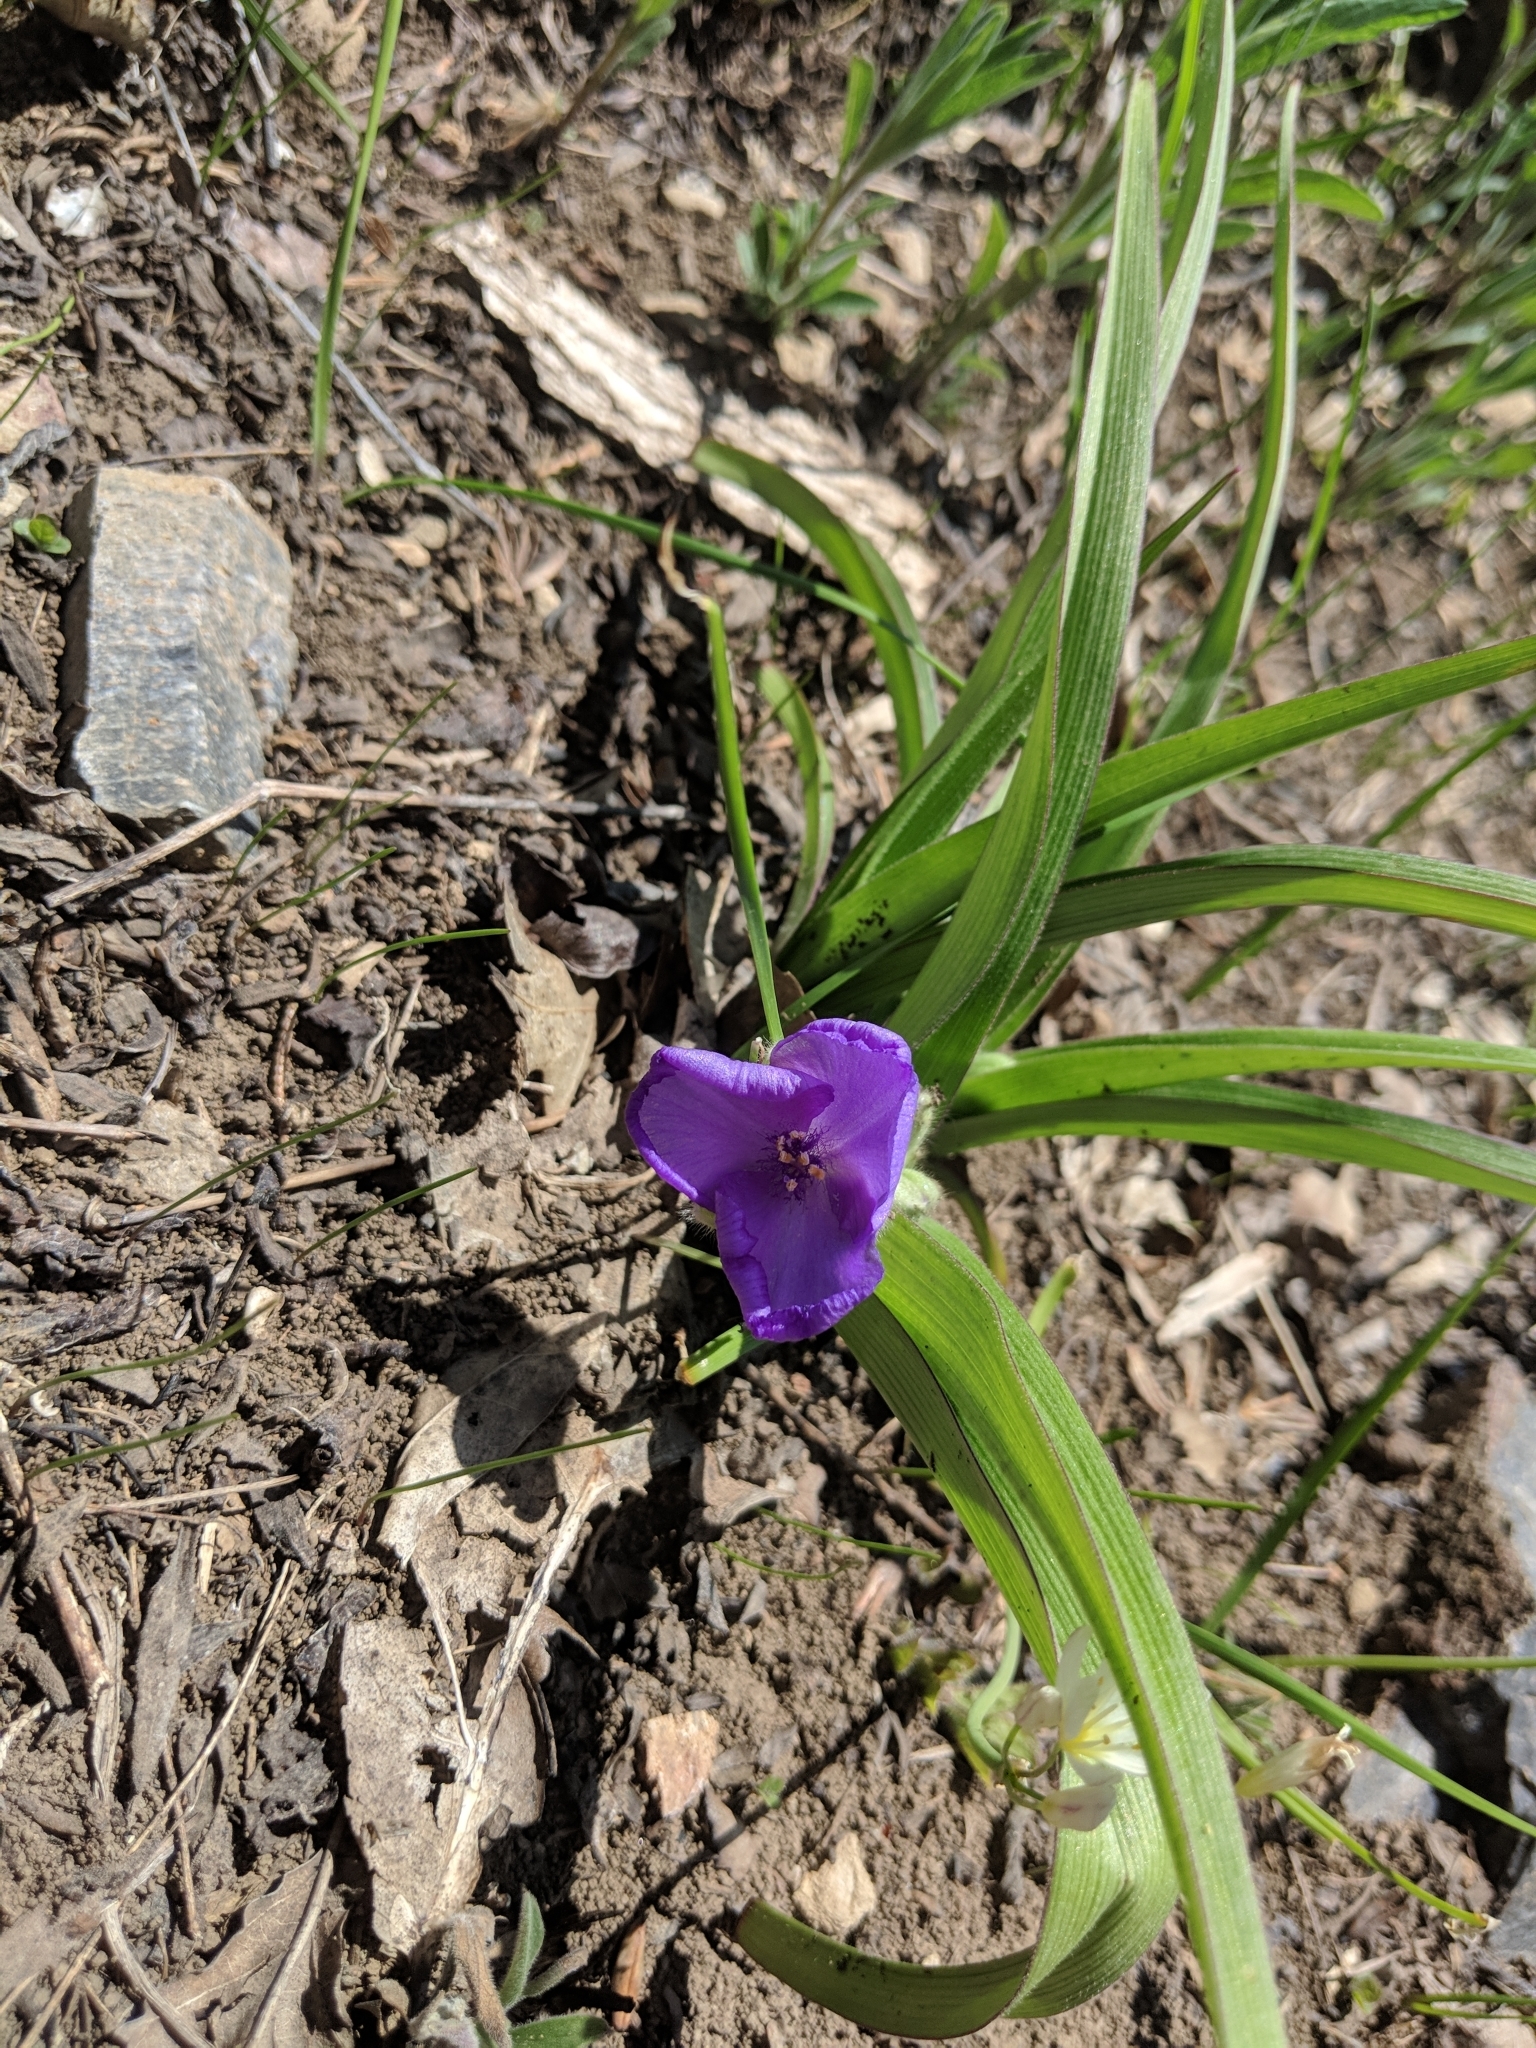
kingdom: Plantae
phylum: Tracheophyta
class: Liliopsida
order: Commelinales
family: Commelinaceae
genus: Tradescantia
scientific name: Tradescantia virginiana
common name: Spiderwort
